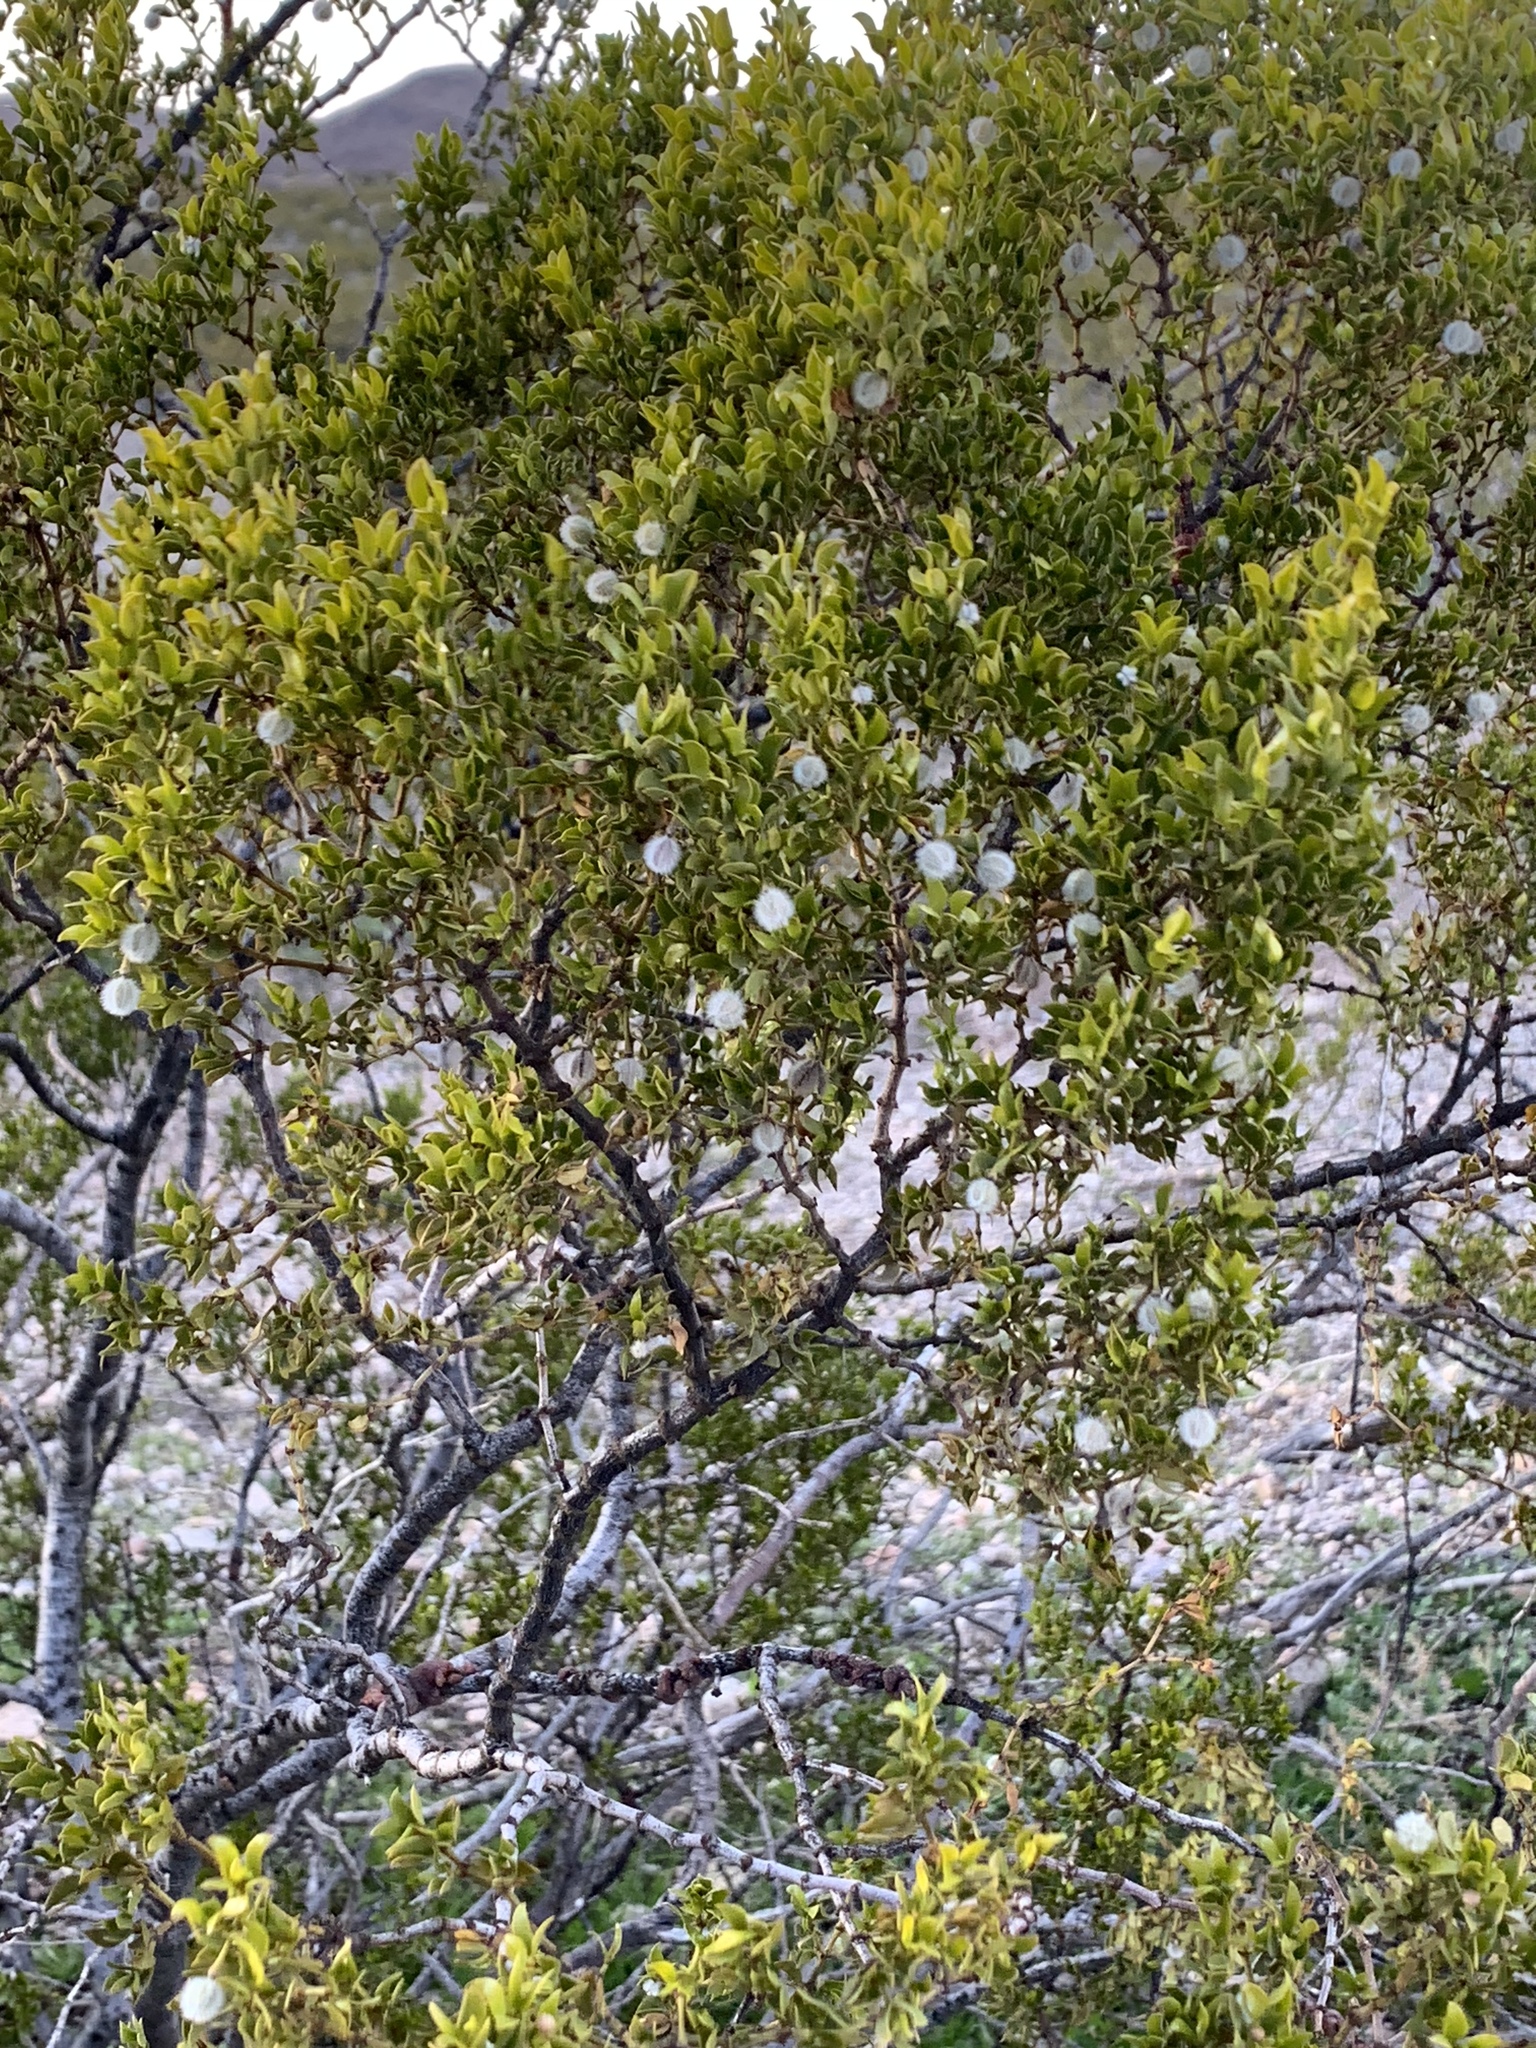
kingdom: Plantae
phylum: Tracheophyta
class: Magnoliopsida
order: Zygophyllales
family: Zygophyllaceae
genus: Larrea
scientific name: Larrea tridentata
